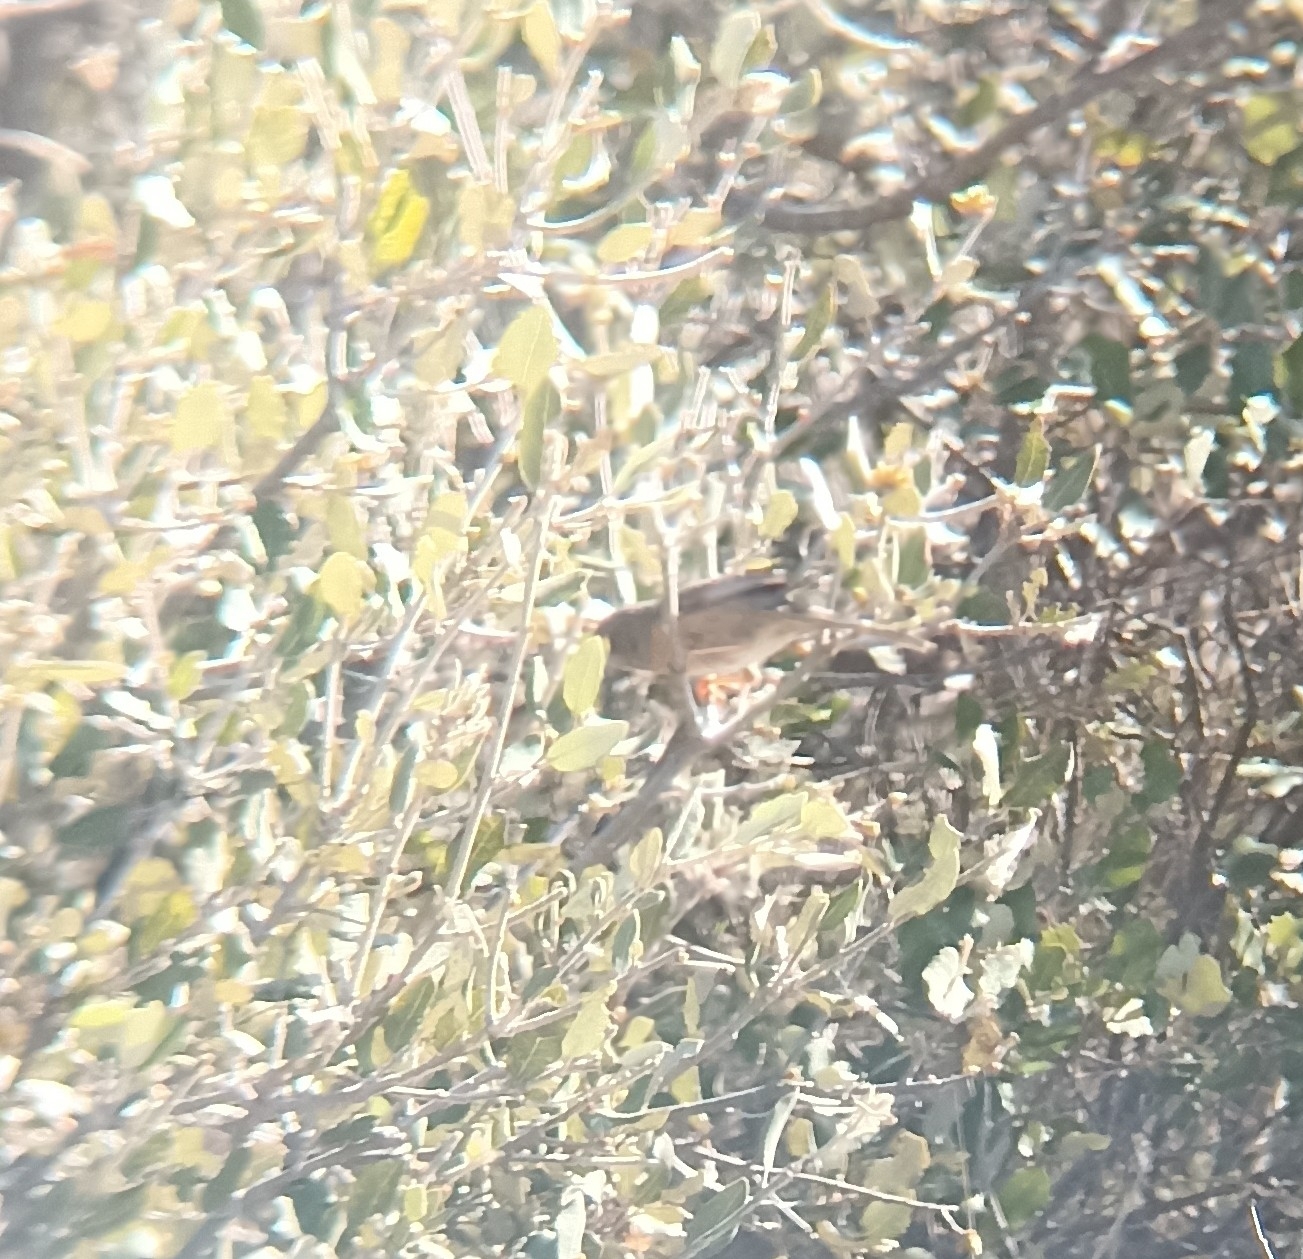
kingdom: Animalia
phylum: Chordata
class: Aves
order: Passeriformes
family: Sylviidae
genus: Curruca
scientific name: Curruca iberiae
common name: Western subalpine warbler
